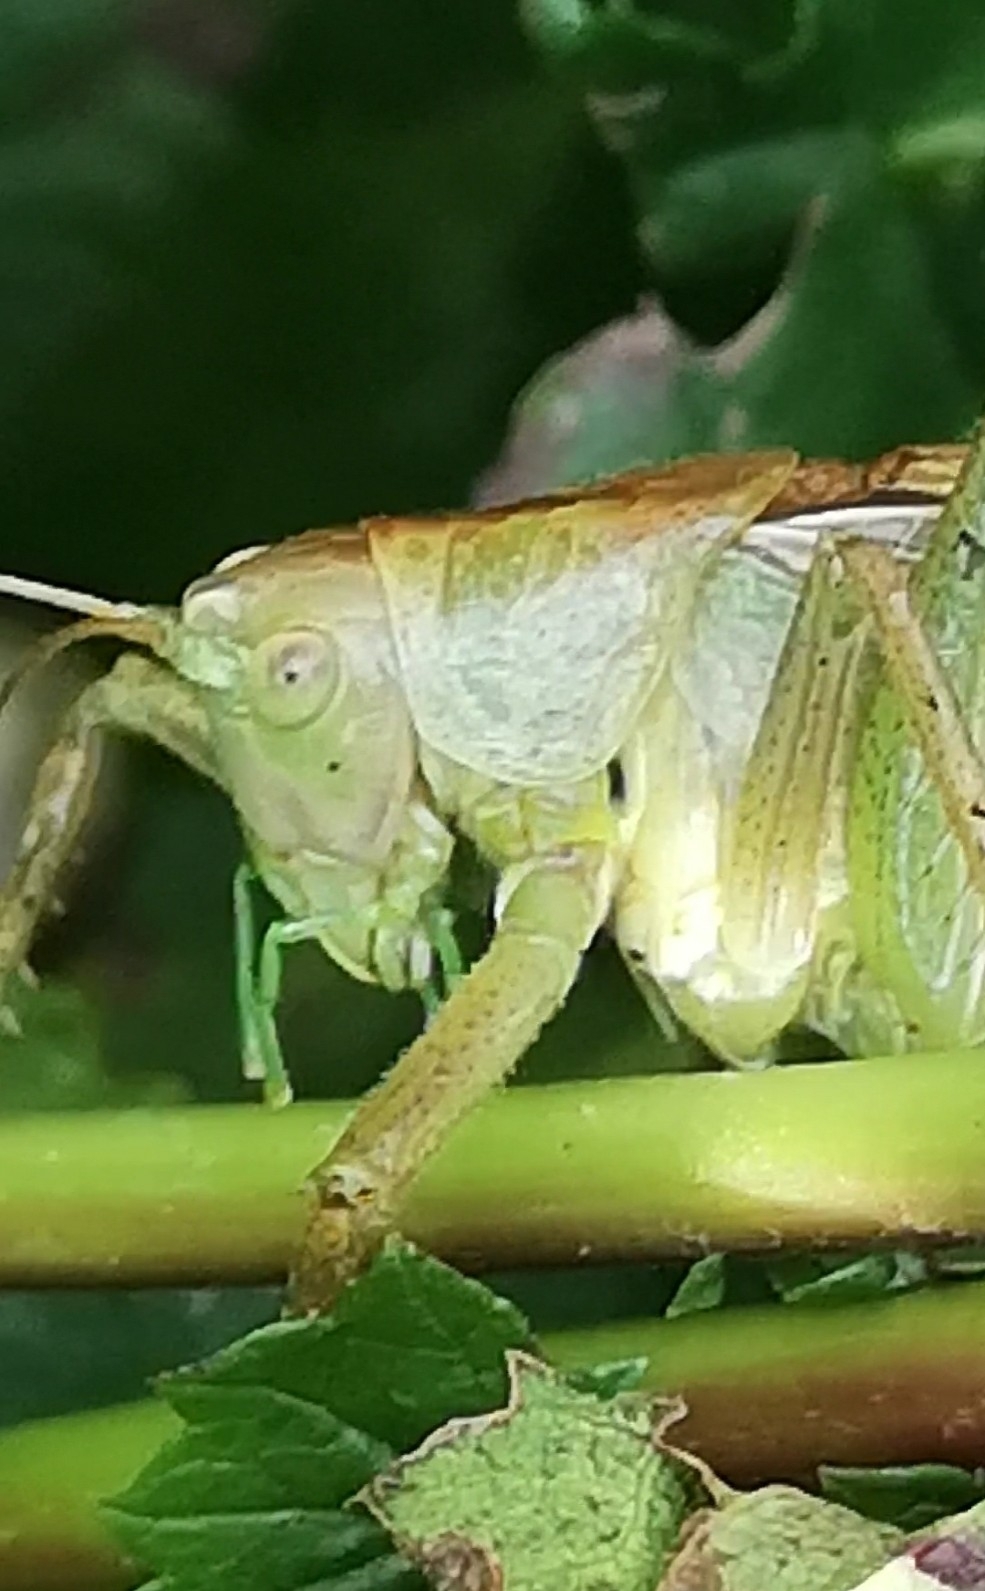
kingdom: Animalia
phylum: Arthropoda
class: Insecta
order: Orthoptera
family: Tettigoniidae
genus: Tettigonia
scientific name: Tettigonia cantans
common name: Upland green bush-cricket
